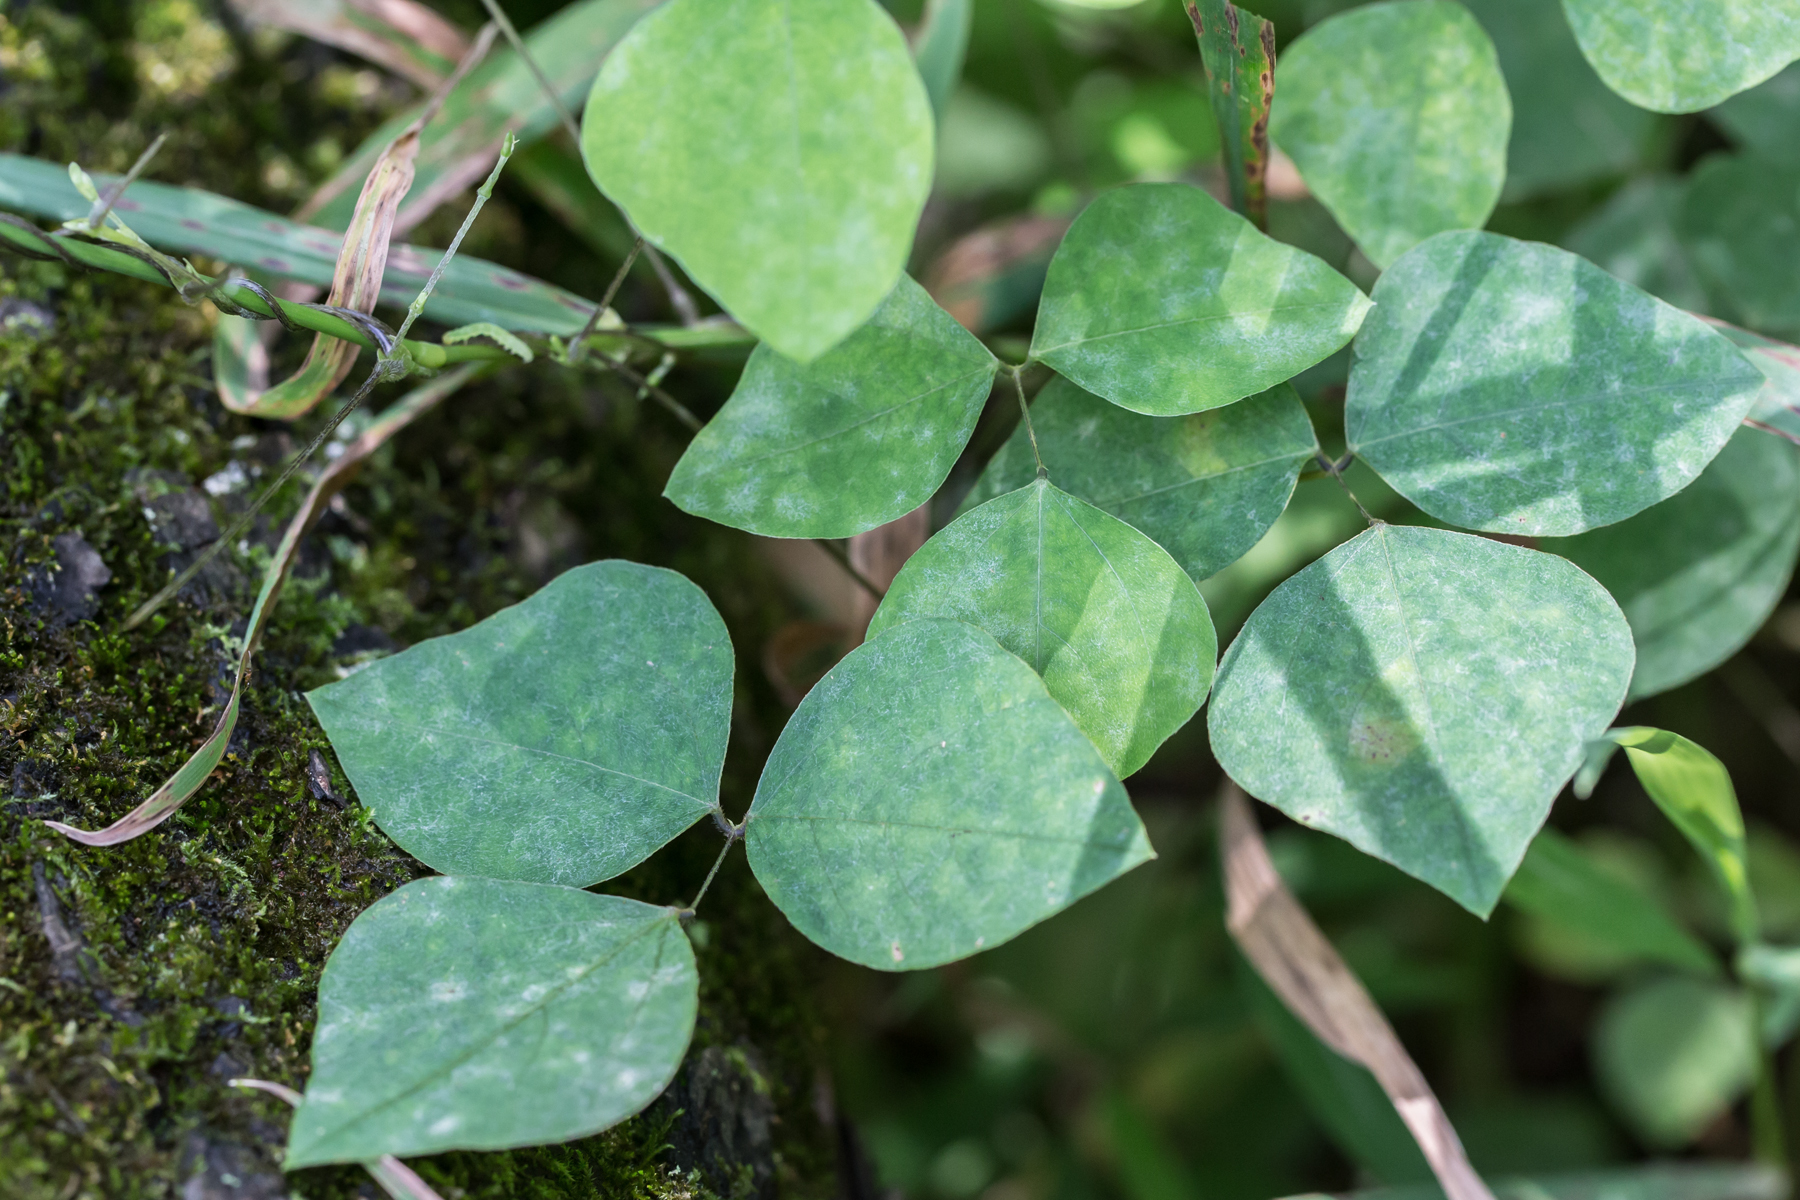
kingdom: Plantae
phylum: Tracheophyta
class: Magnoliopsida
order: Fabales
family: Fabaceae
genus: Amphicarpaea
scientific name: Amphicarpaea bracteata
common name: American hog peanut
